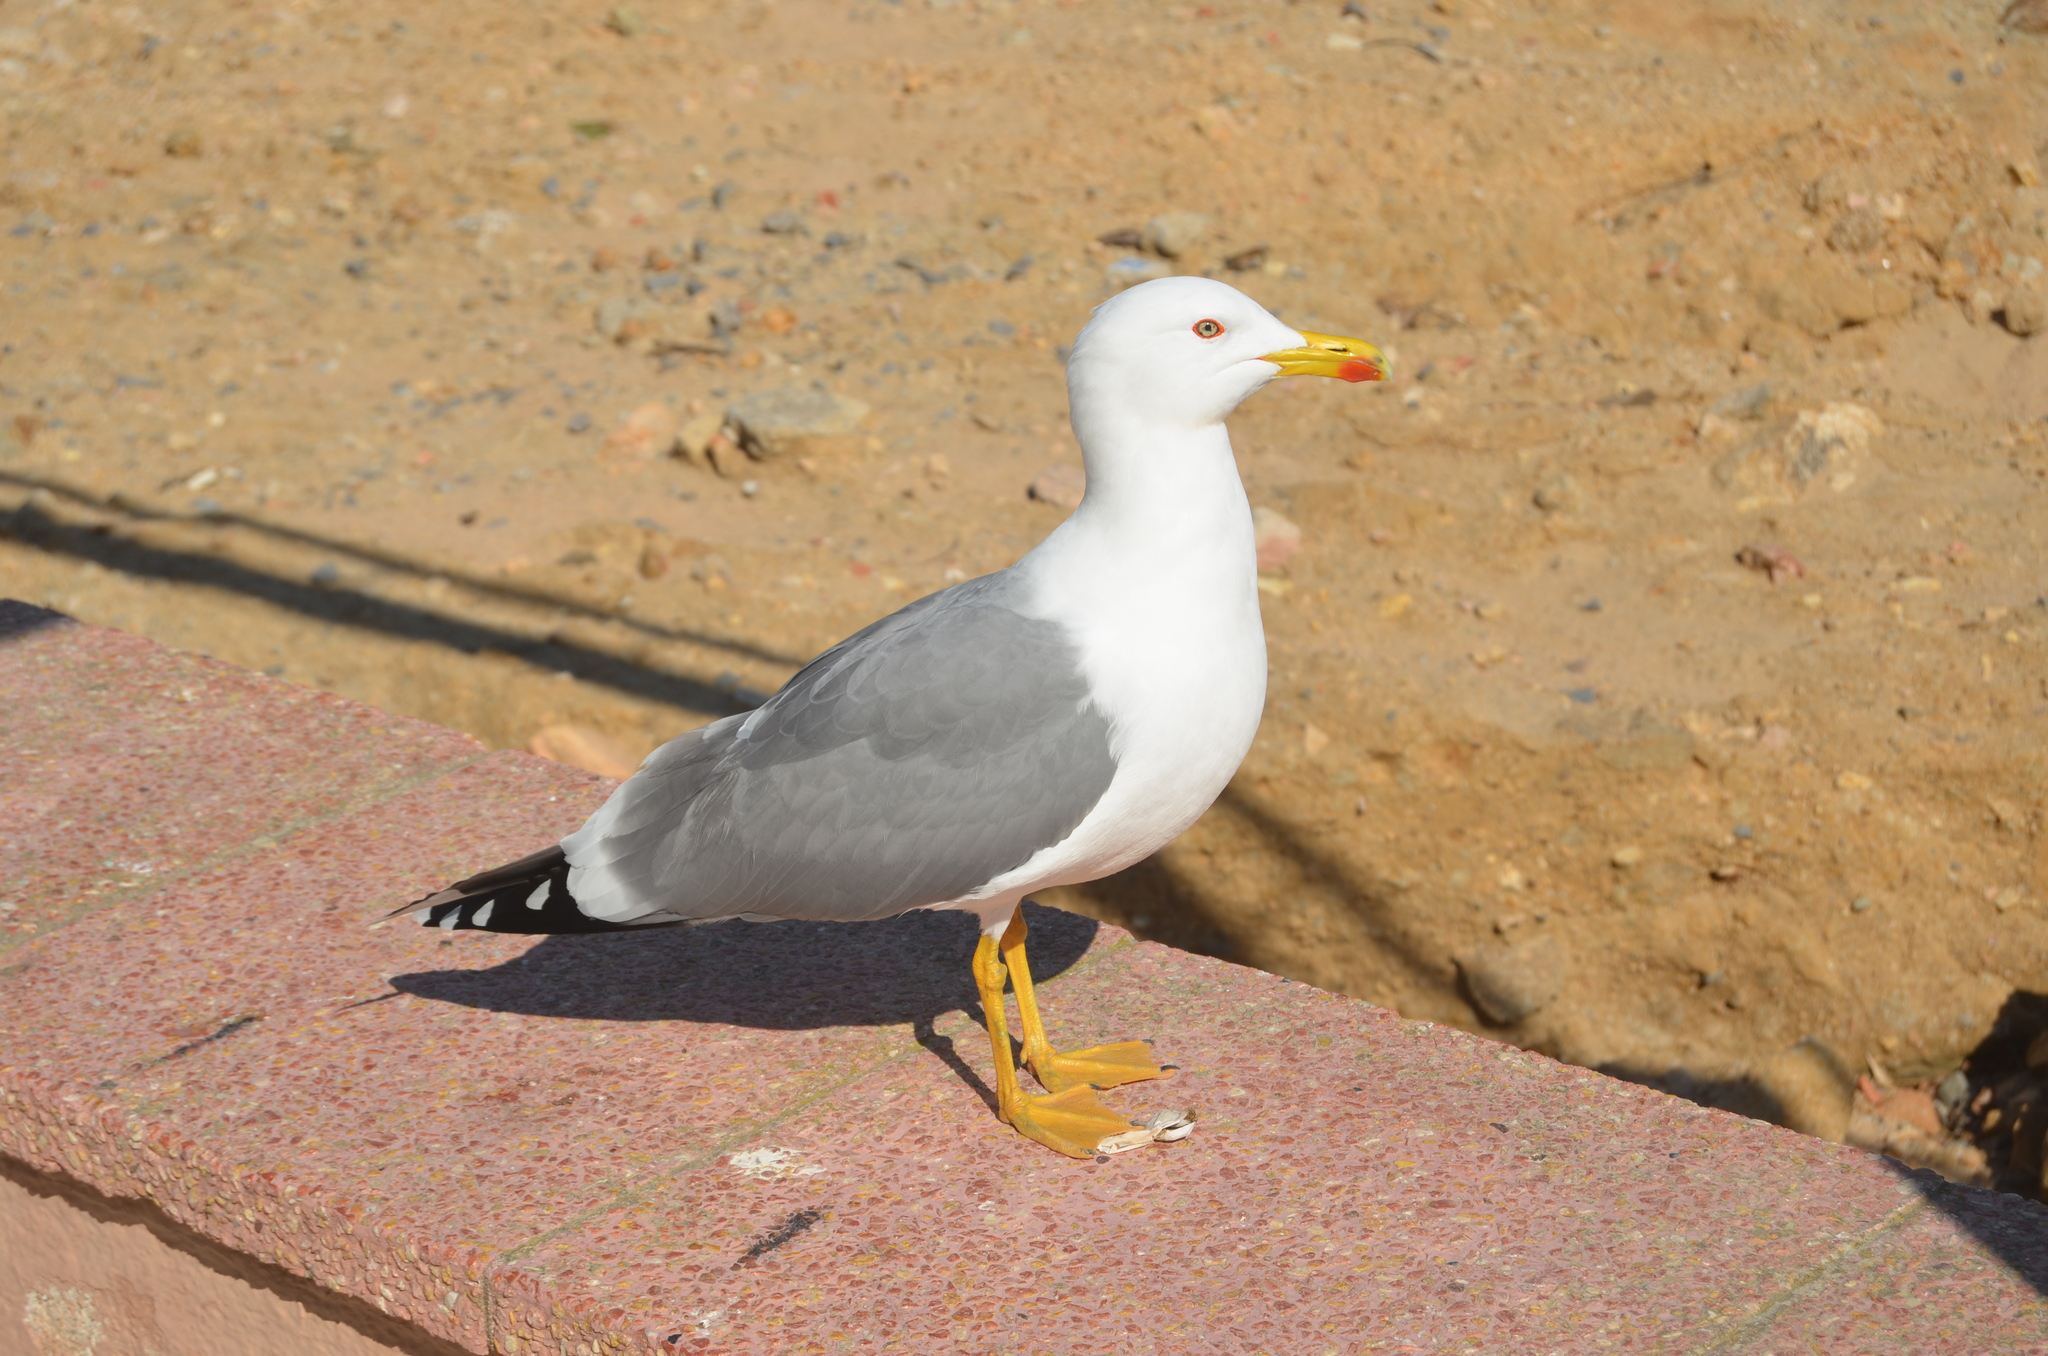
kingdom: Animalia
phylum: Chordata
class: Aves
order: Charadriiformes
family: Laridae
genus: Larus
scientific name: Larus michahellis
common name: Yellow-legged gull
